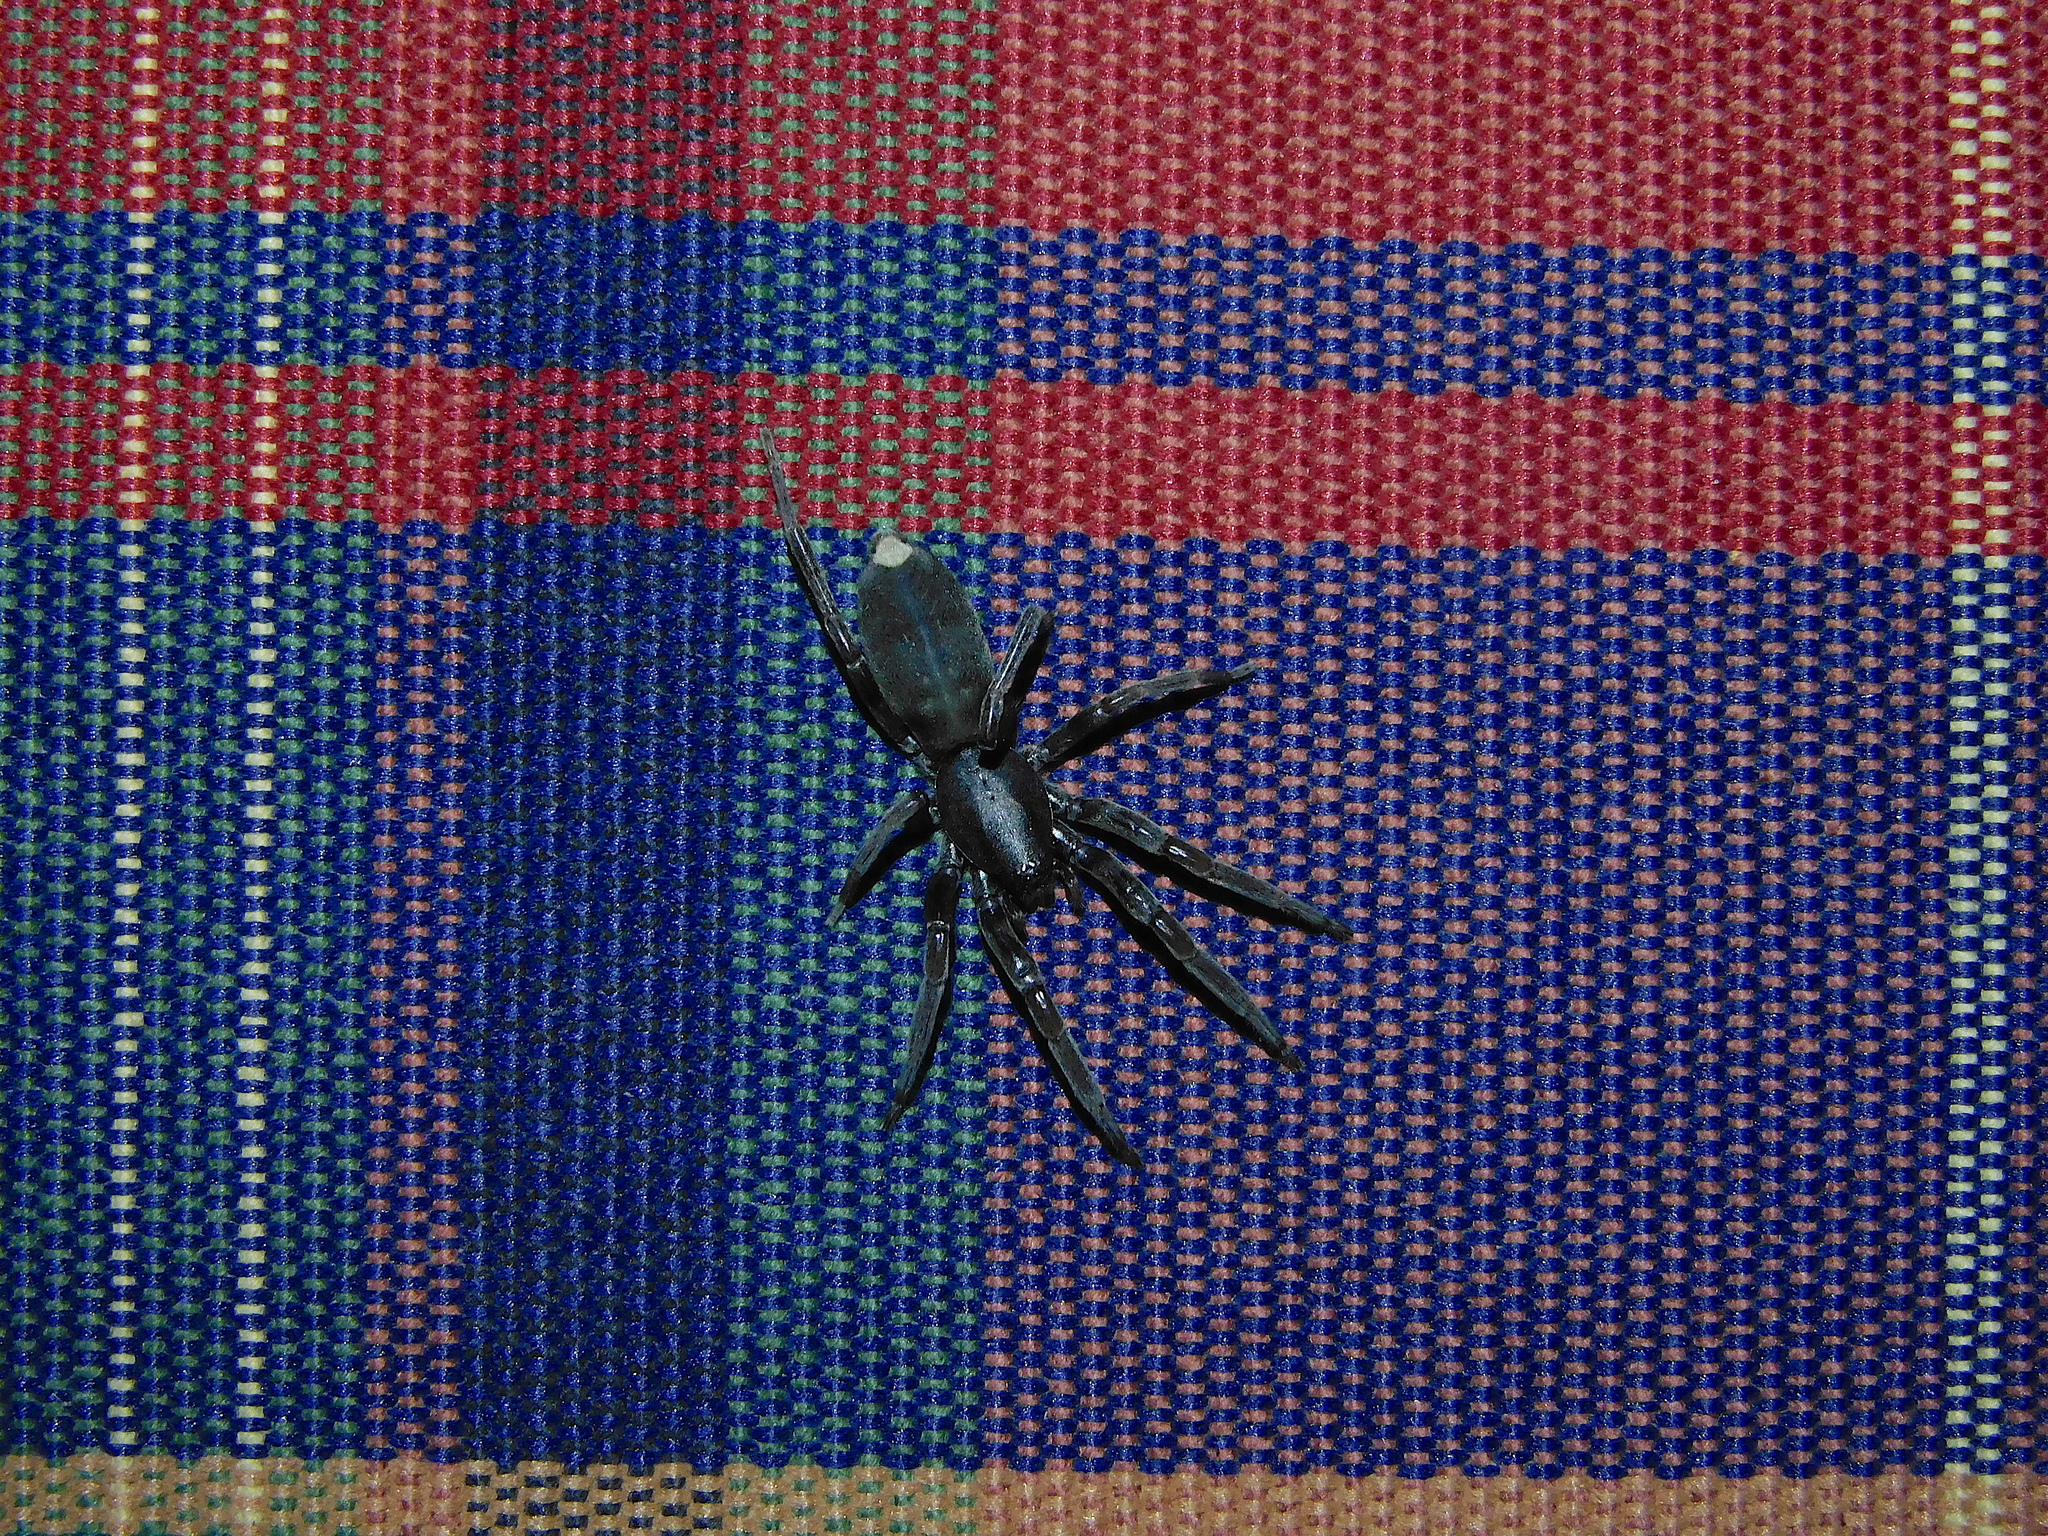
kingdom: Animalia
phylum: Arthropoda
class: Arachnida
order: Araneae
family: Lamponidae
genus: Lampona
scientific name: Lampona
